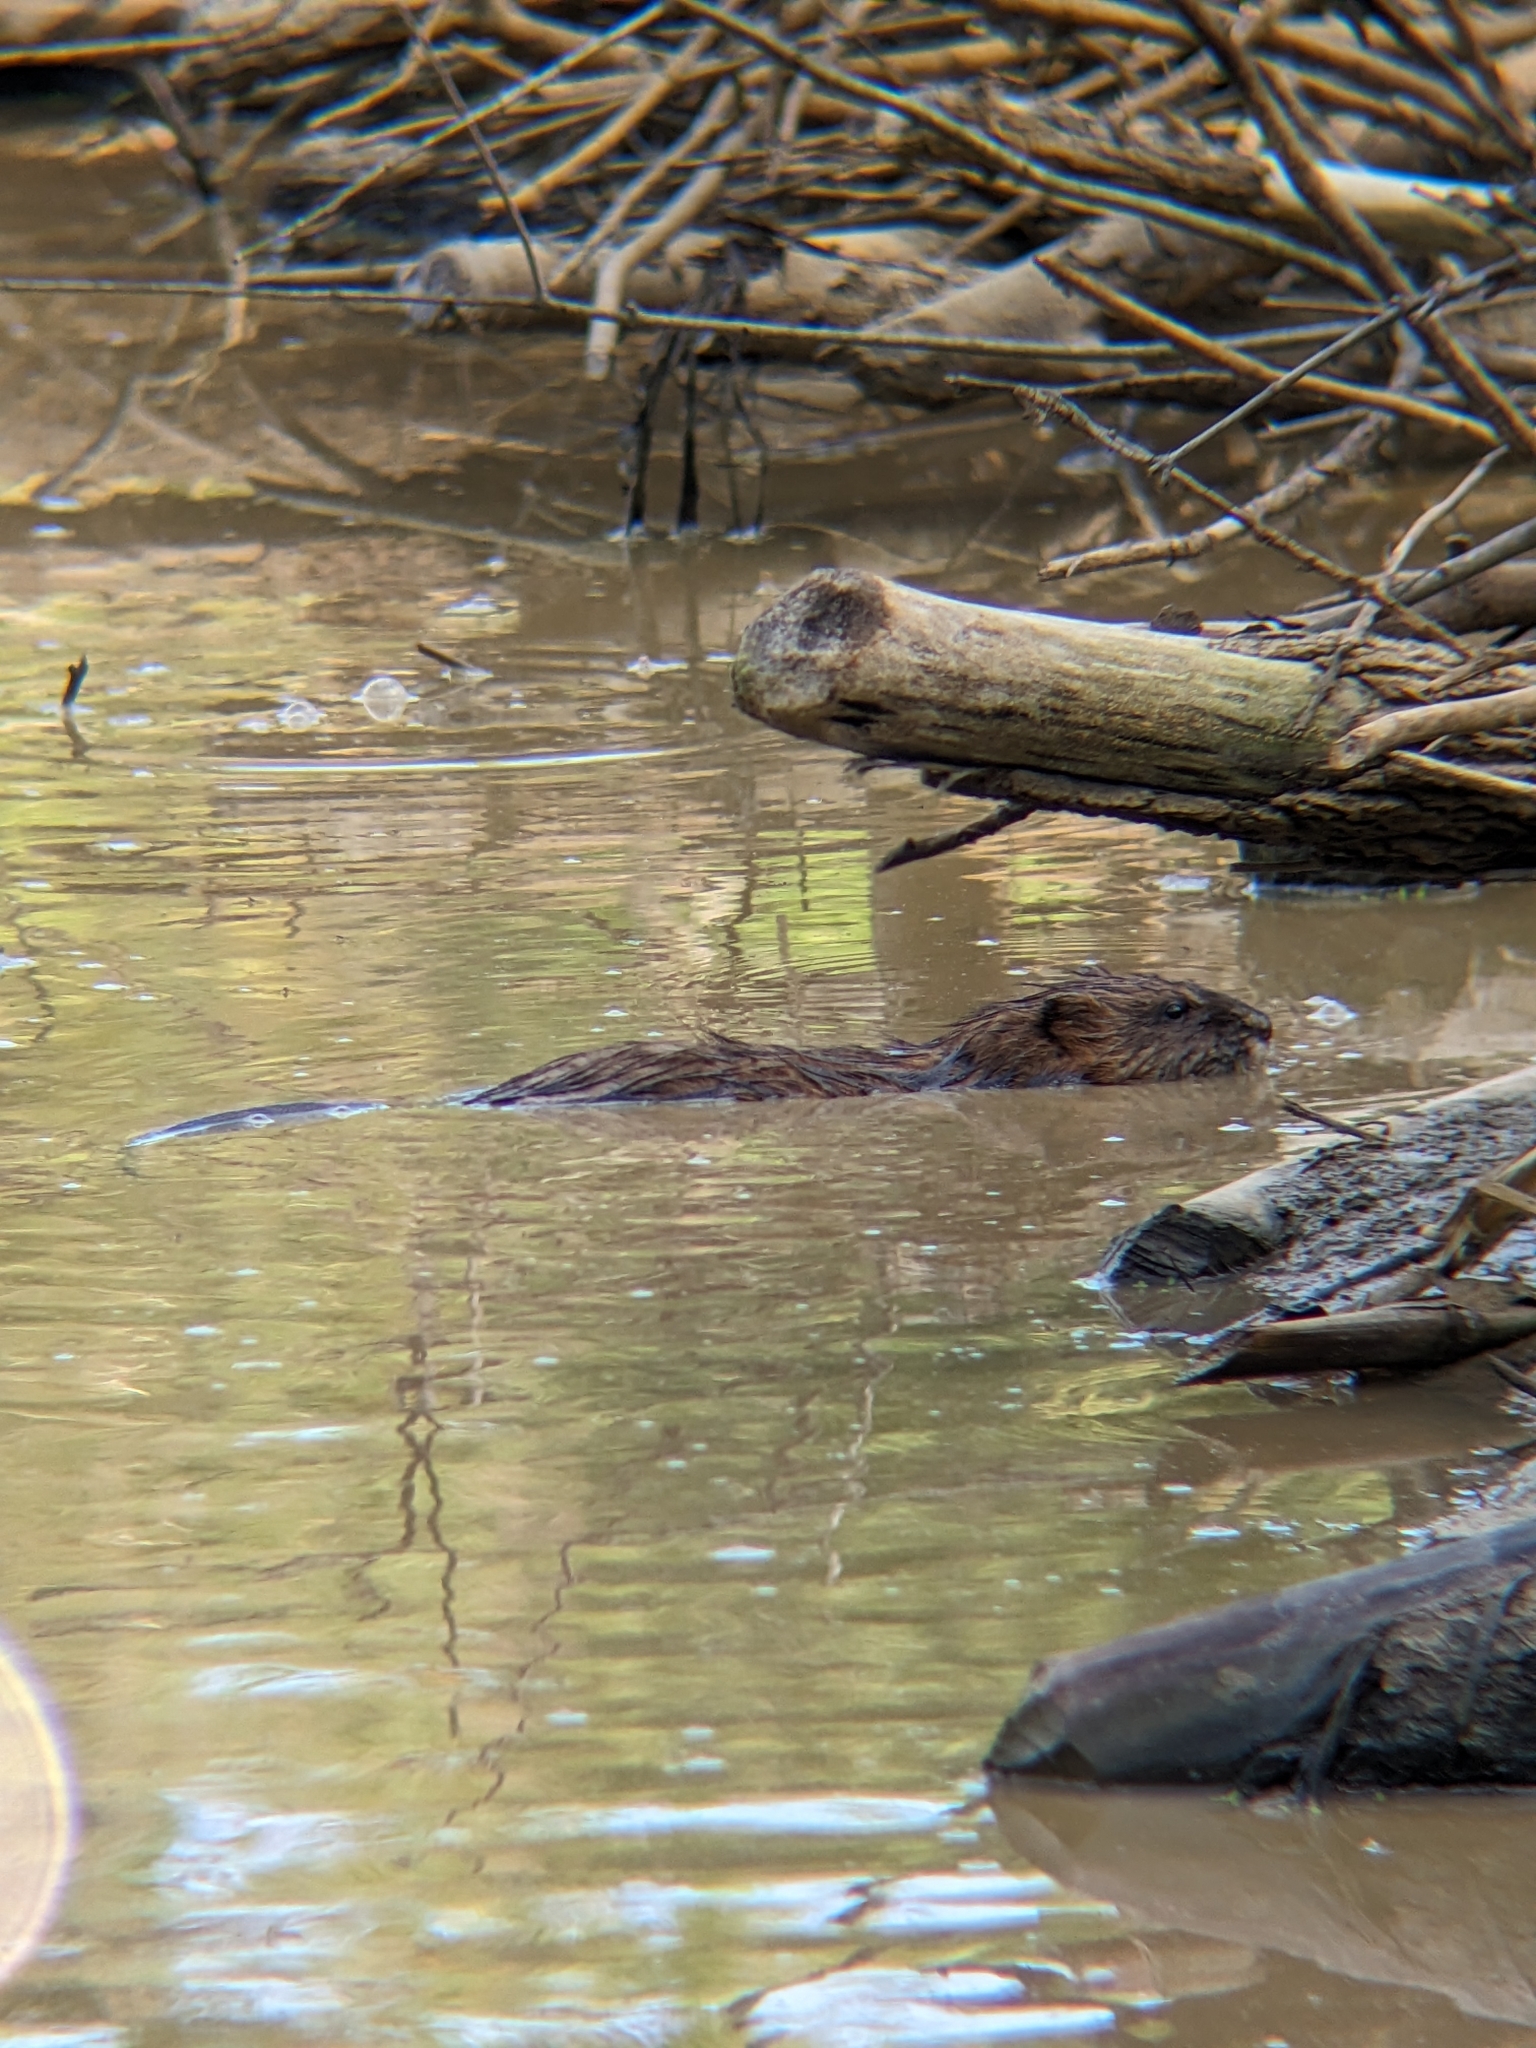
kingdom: Animalia
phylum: Chordata
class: Mammalia
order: Rodentia
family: Cricetidae
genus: Ondatra
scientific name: Ondatra zibethicus
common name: Muskrat
